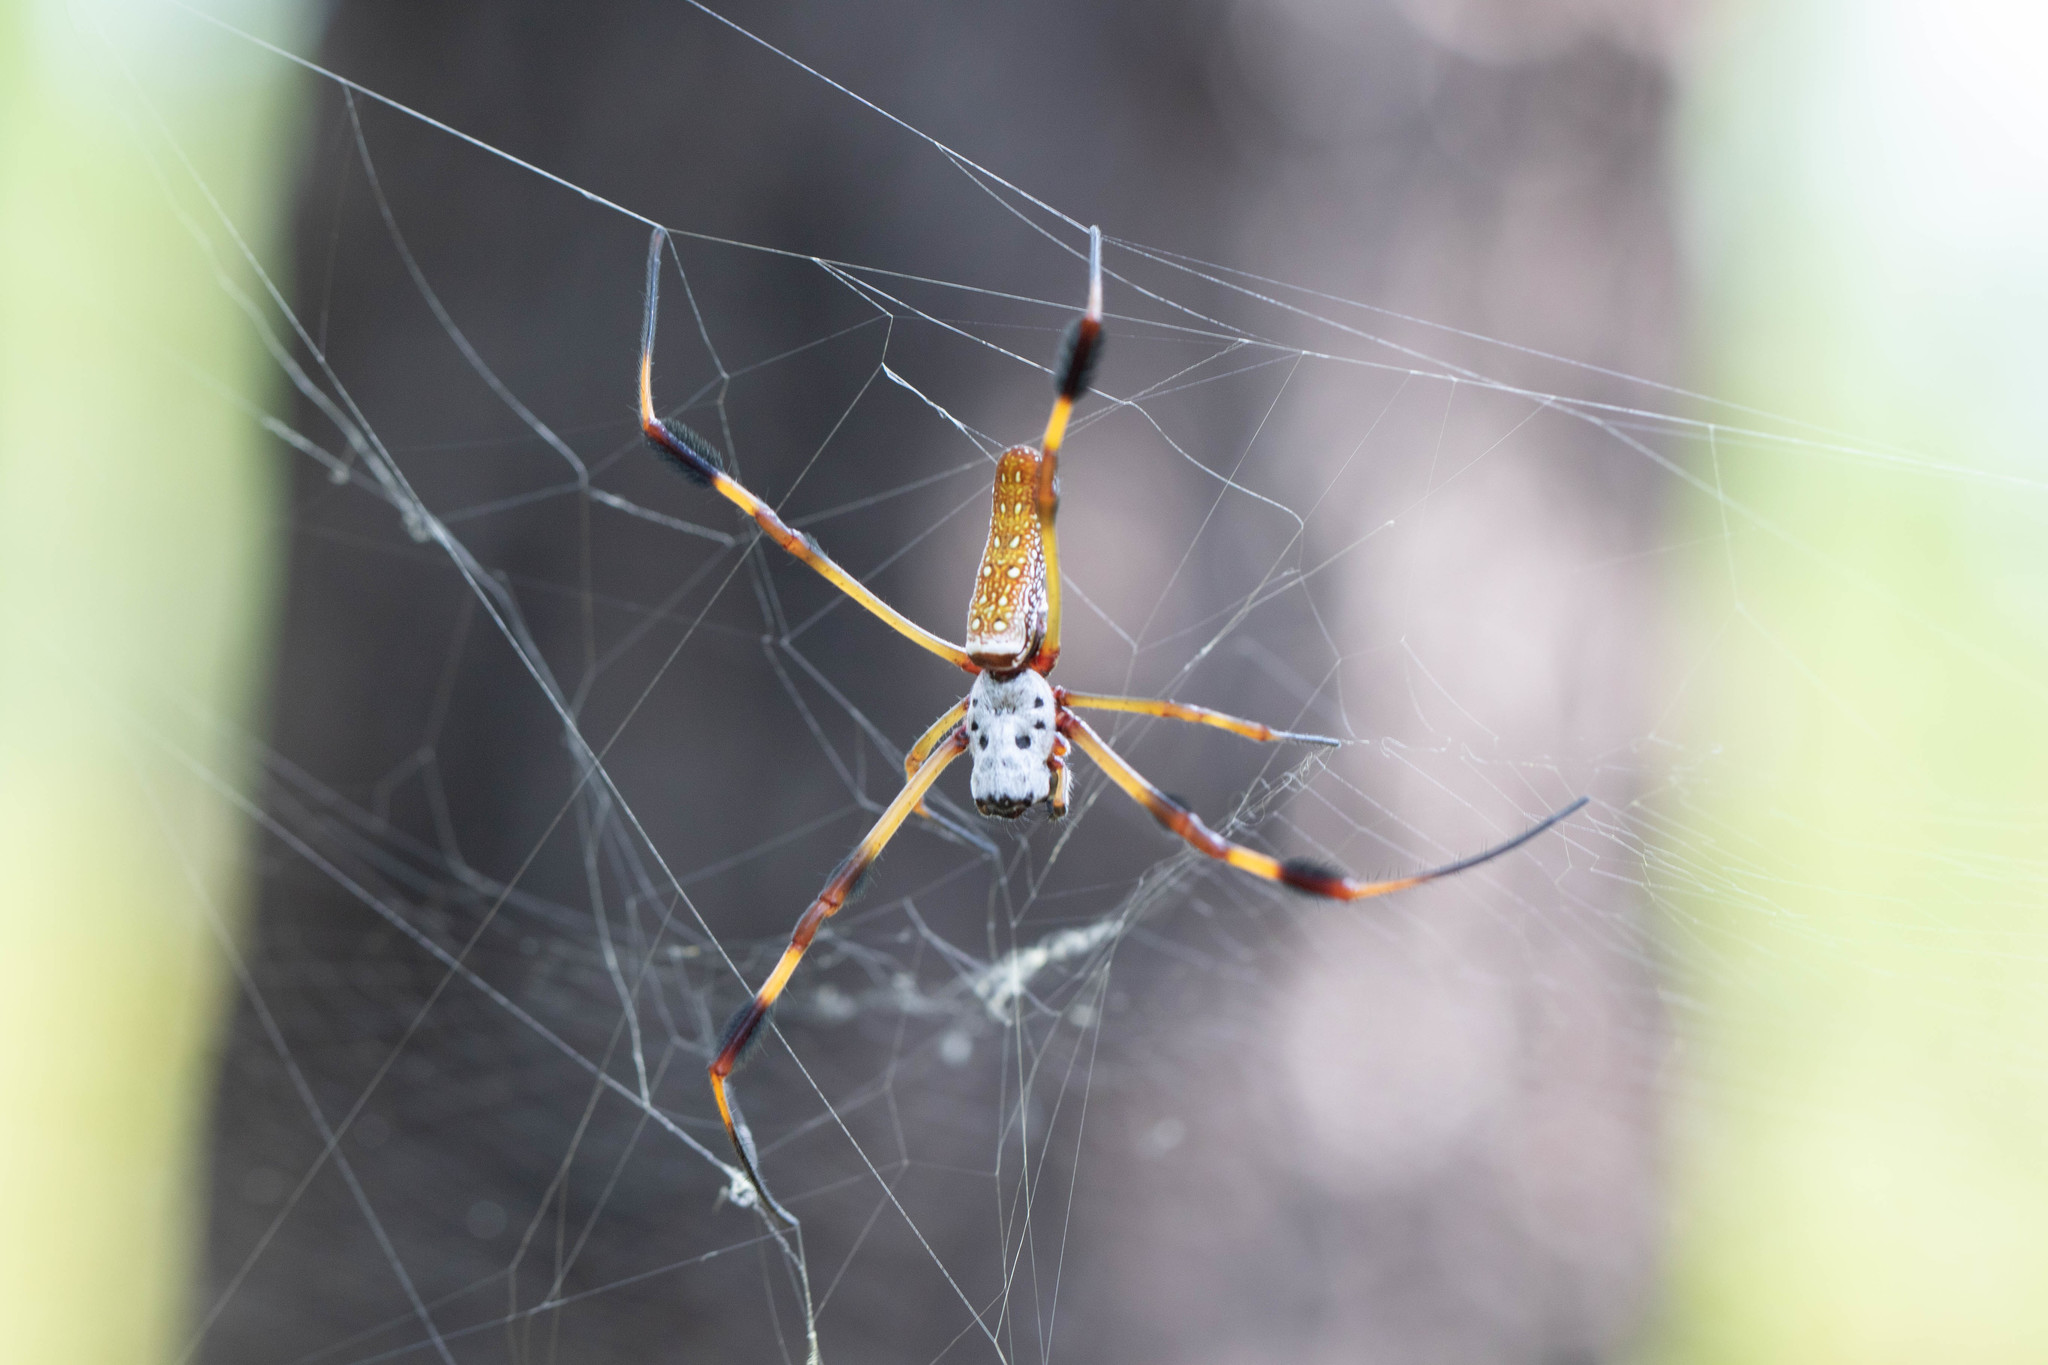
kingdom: Animalia
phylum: Arthropoda
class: Arachnida
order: Araneae
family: Araneidae
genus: Trichonephila
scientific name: Trichonephila clavipes
